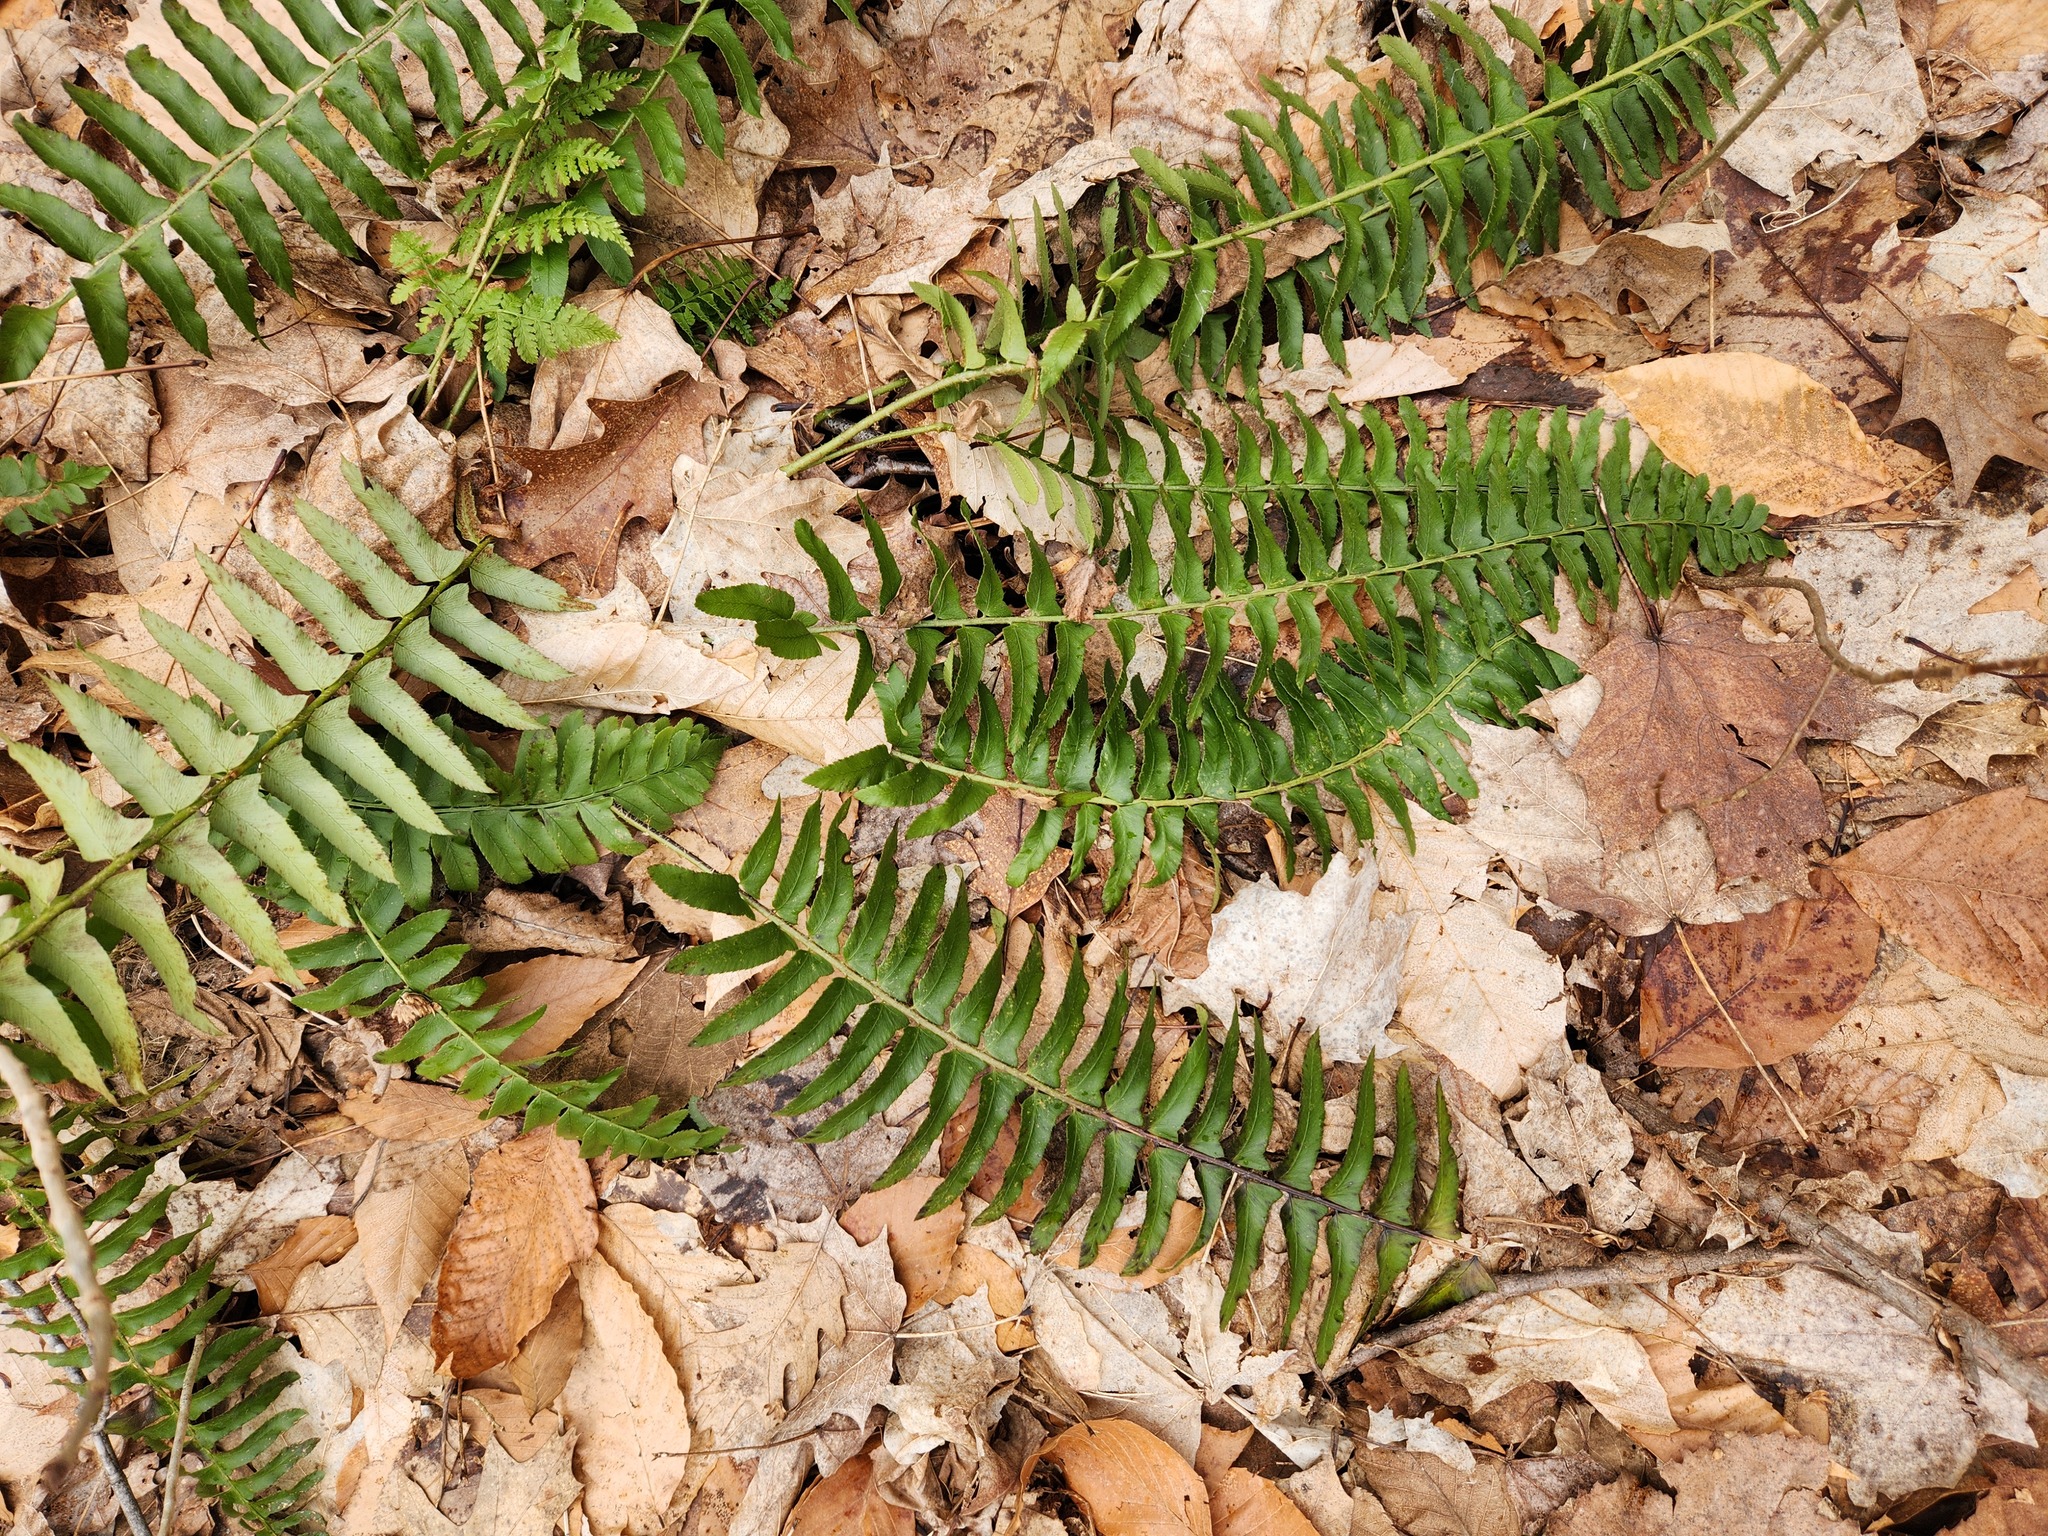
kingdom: Plantae
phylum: Tracheophyta
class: Polypodiopsida
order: Polypodiales
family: Dryopteridaceae
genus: Polystichum
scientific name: Polystichum acrostichoides
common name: Christmas fern
